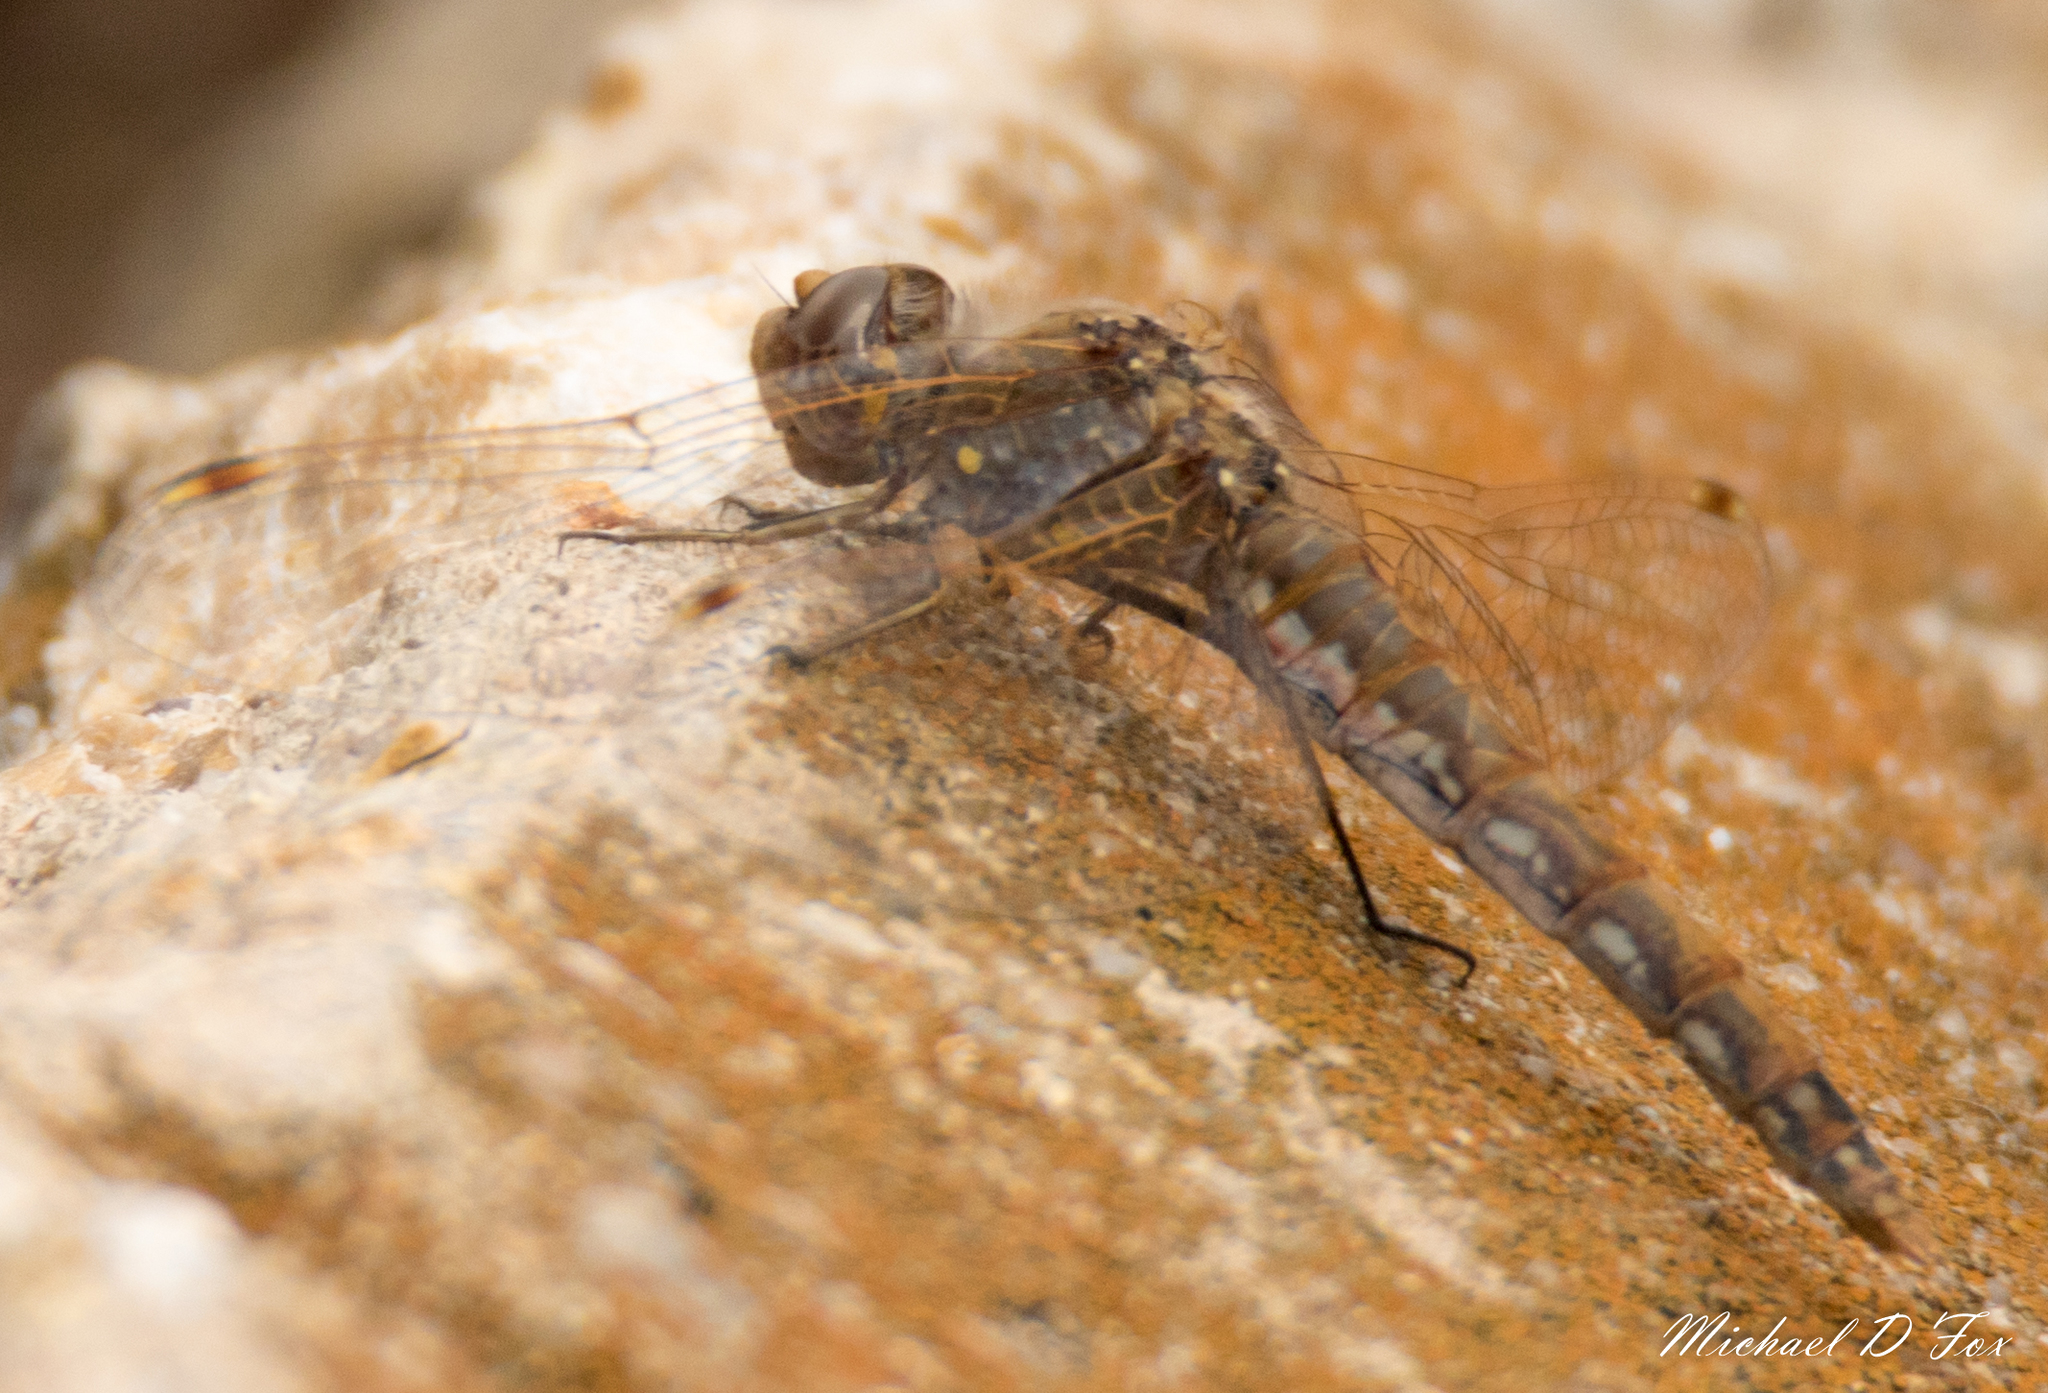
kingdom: Animalia
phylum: Arthropoda
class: Insecta
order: Odonata
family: Libellulidae
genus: Sympetrum
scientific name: Sympetrum corruptum
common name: Variegated meadowhawk
